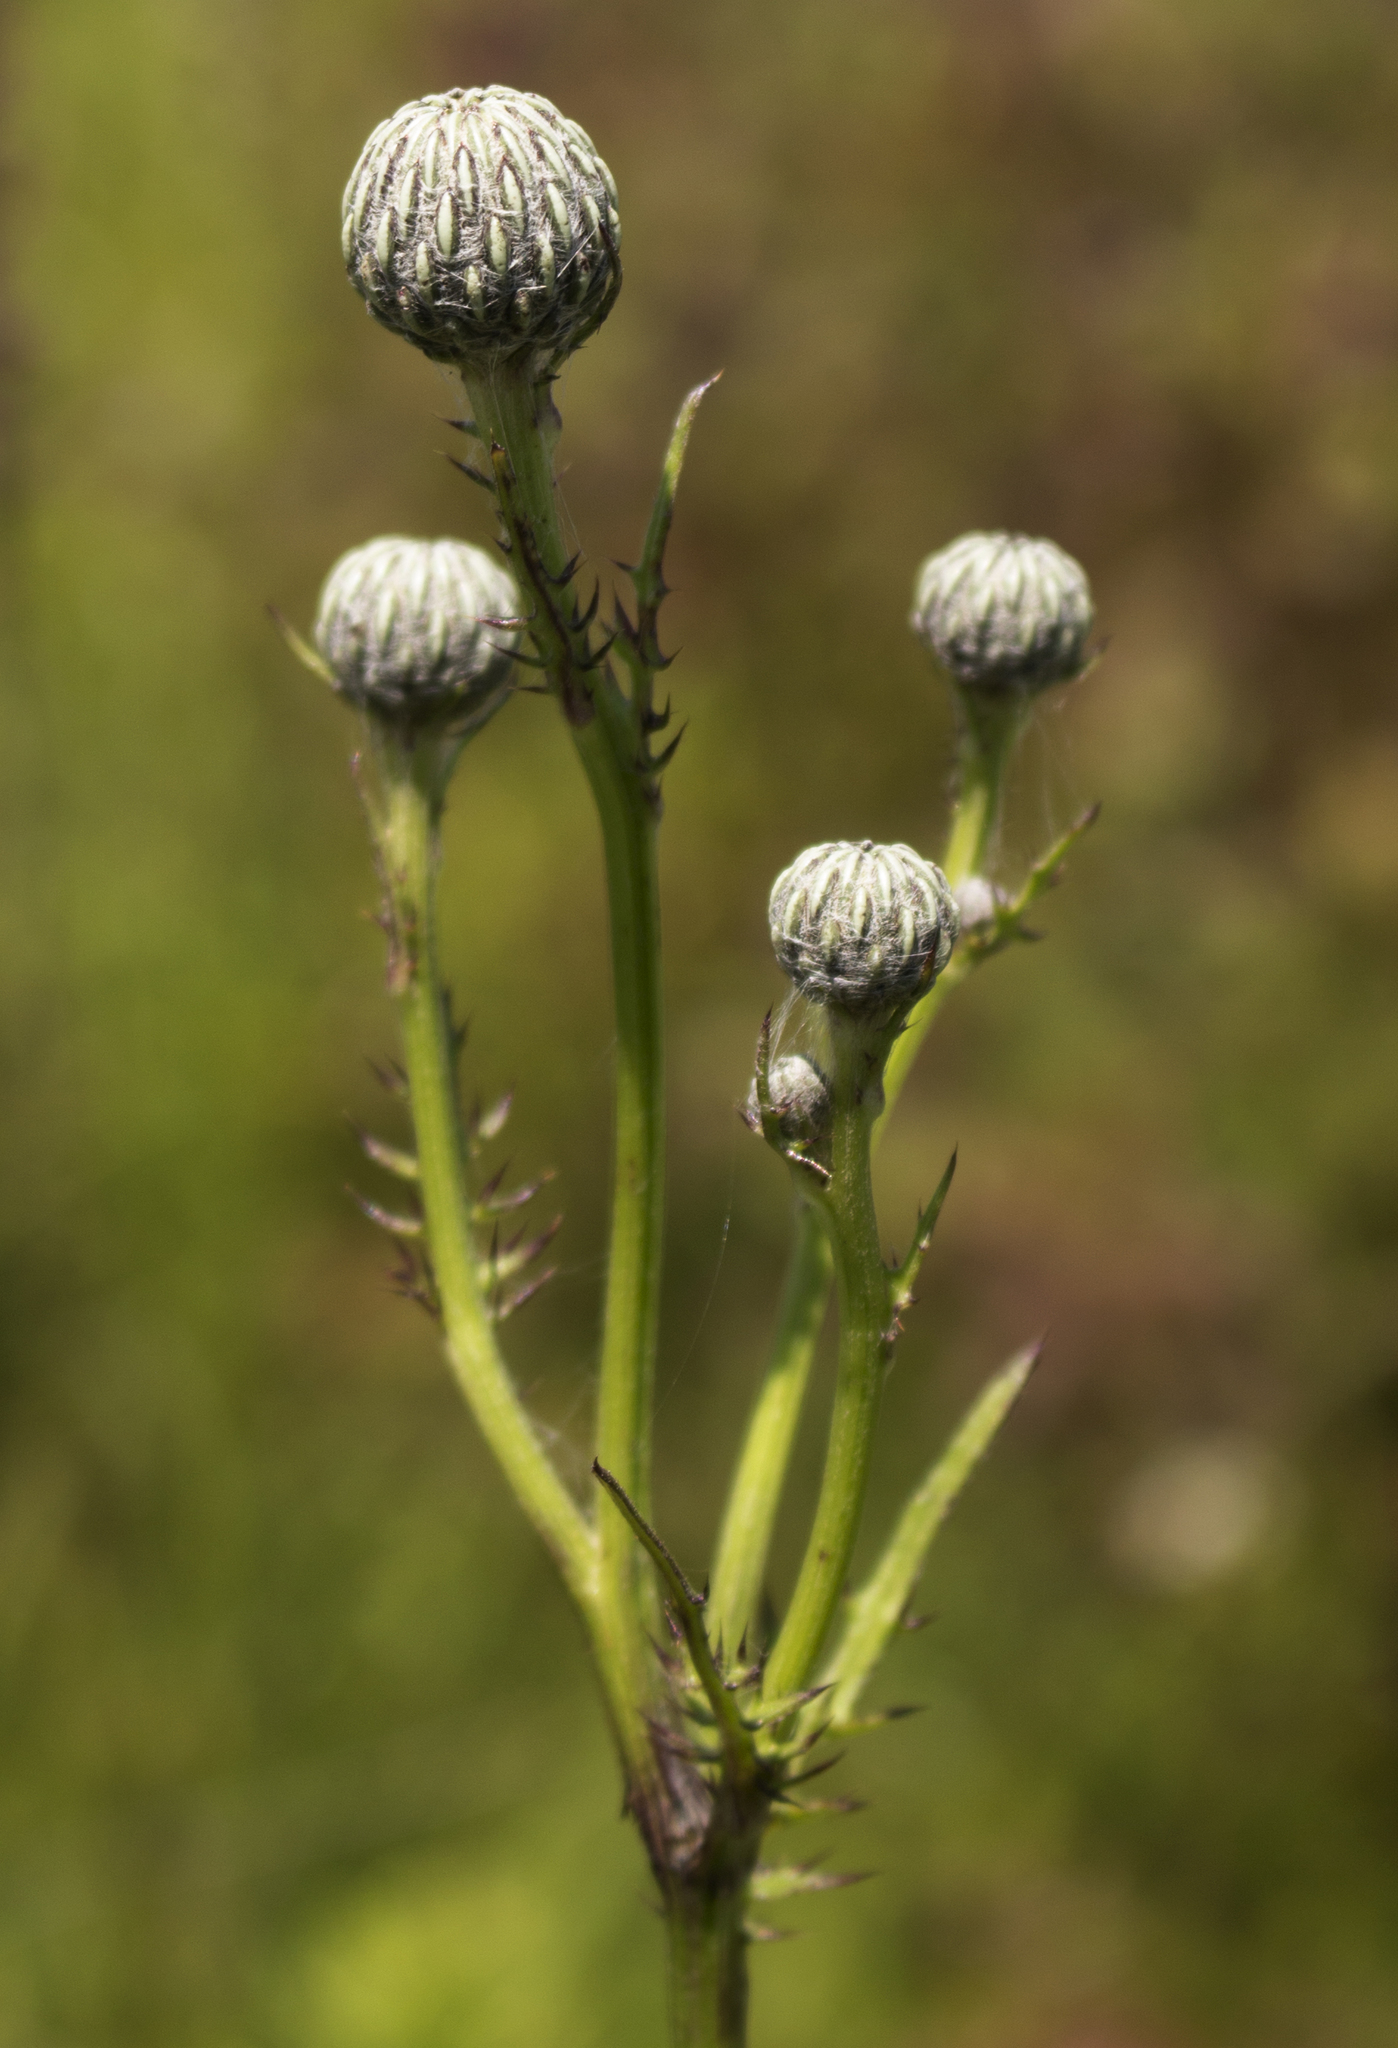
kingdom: Plantae
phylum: Tracheophyta
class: Magnoliopsida
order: Asterales
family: Asteraceae
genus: Cirsium
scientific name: Cirsium muticum
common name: Dunce-nettle
